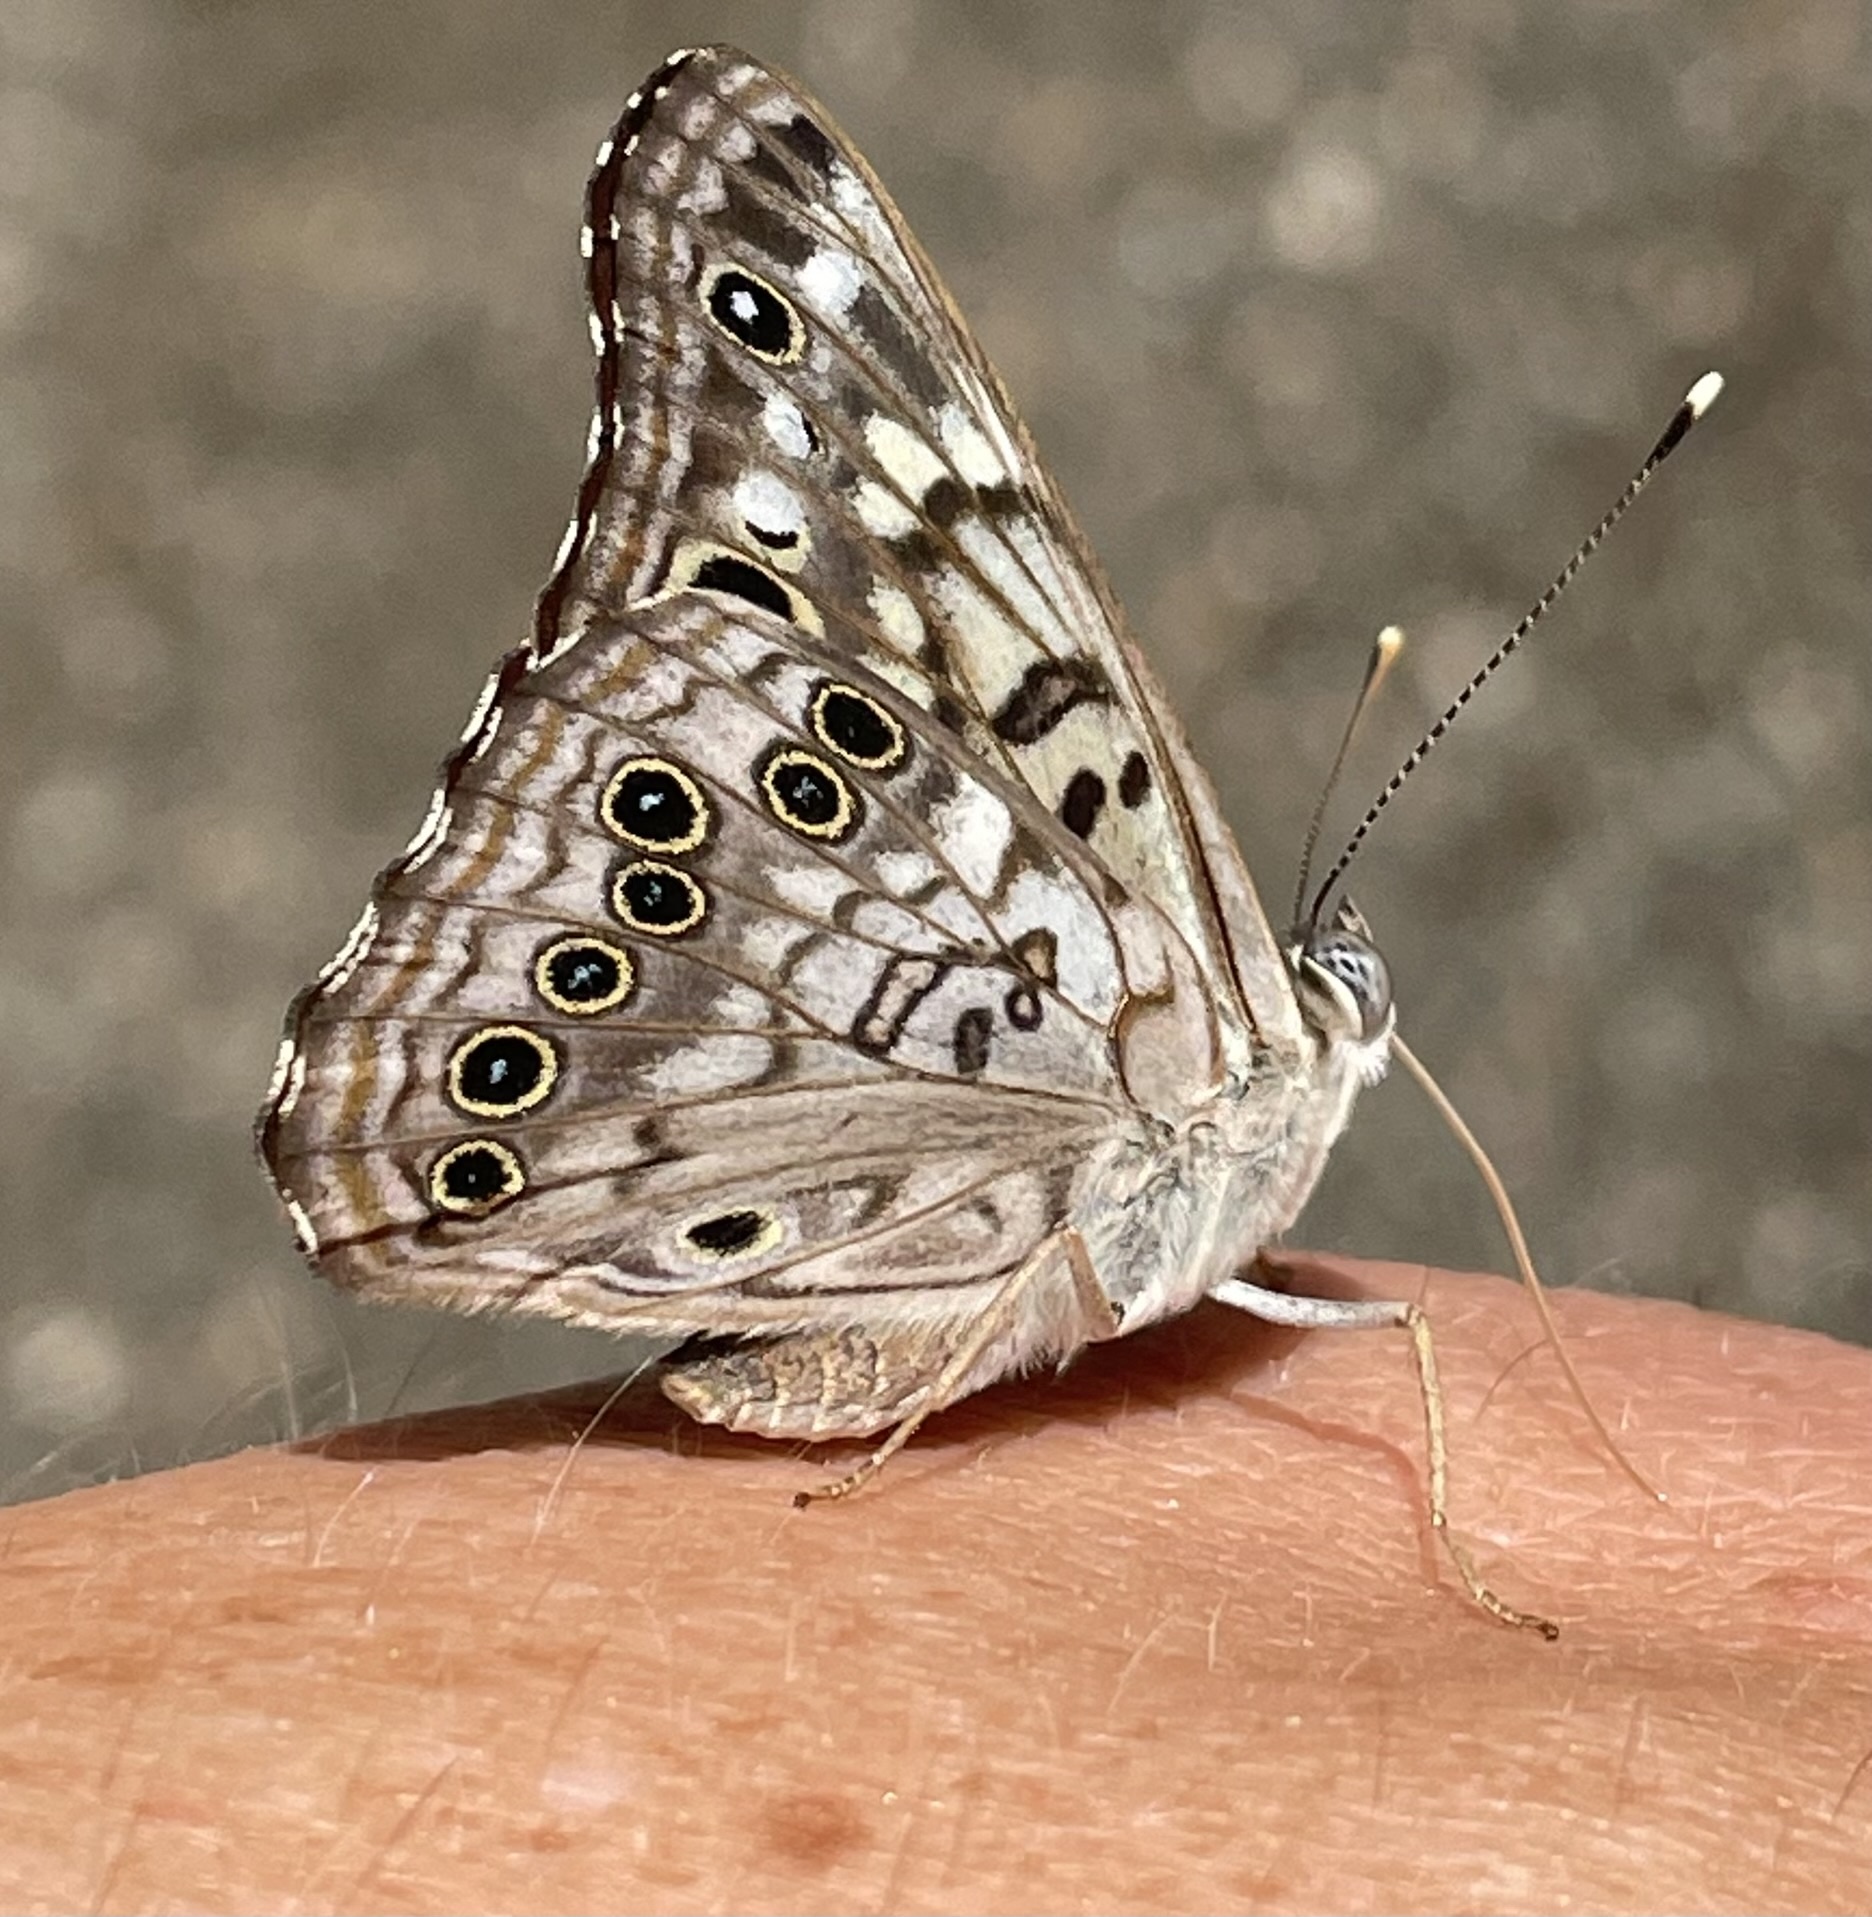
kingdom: Animalia
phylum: Arthropoda
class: Insecta
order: Lepidoptera
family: Nymphalidae
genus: Asterocampa
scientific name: Asterocampa celtis
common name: Hackberry emperor
